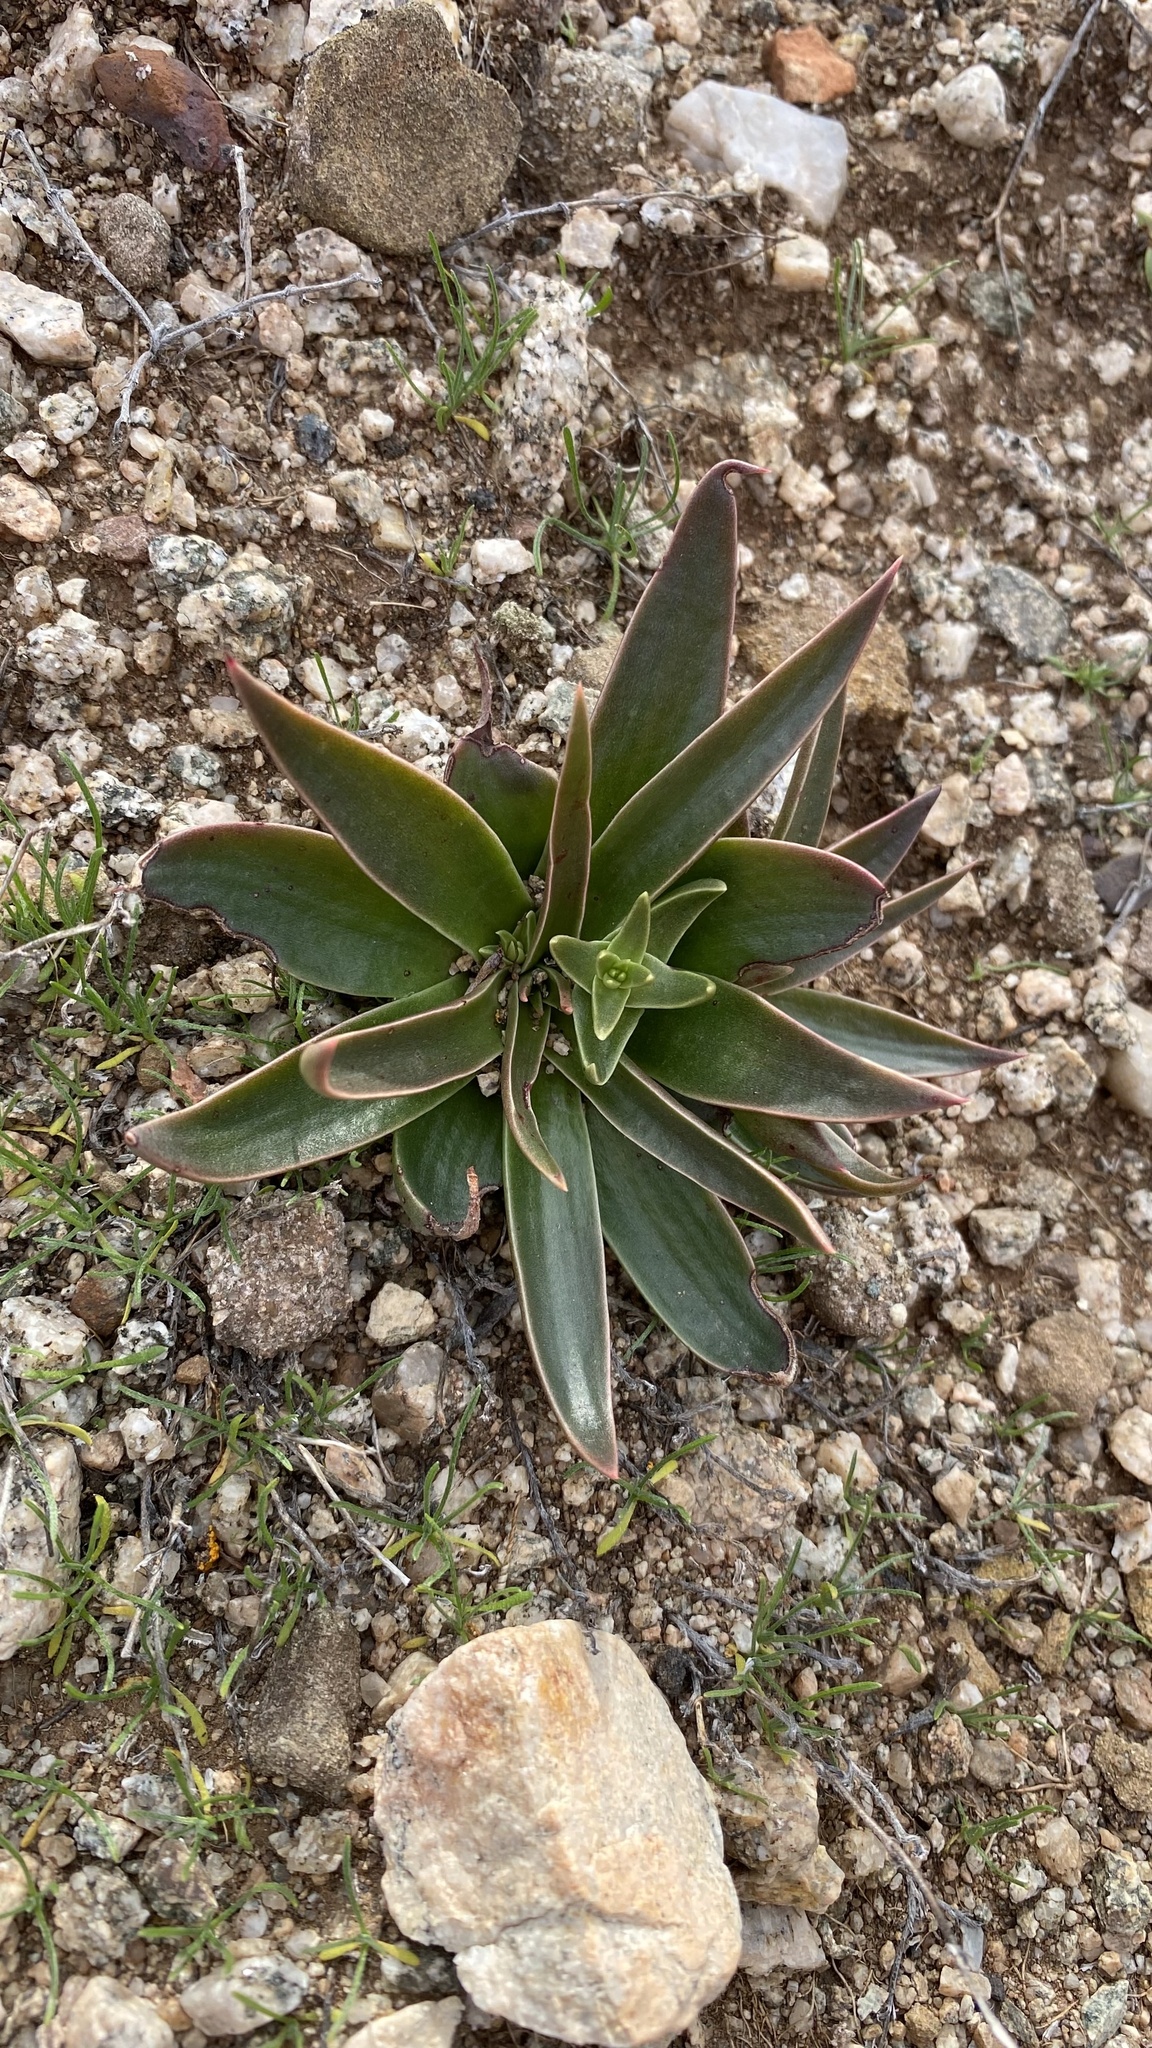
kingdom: Plantae
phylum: Tracheophyta
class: Magnoliopsida
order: Saxifragales
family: Crassulaceae
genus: Dudleya
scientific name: Dudleya lanceolata
